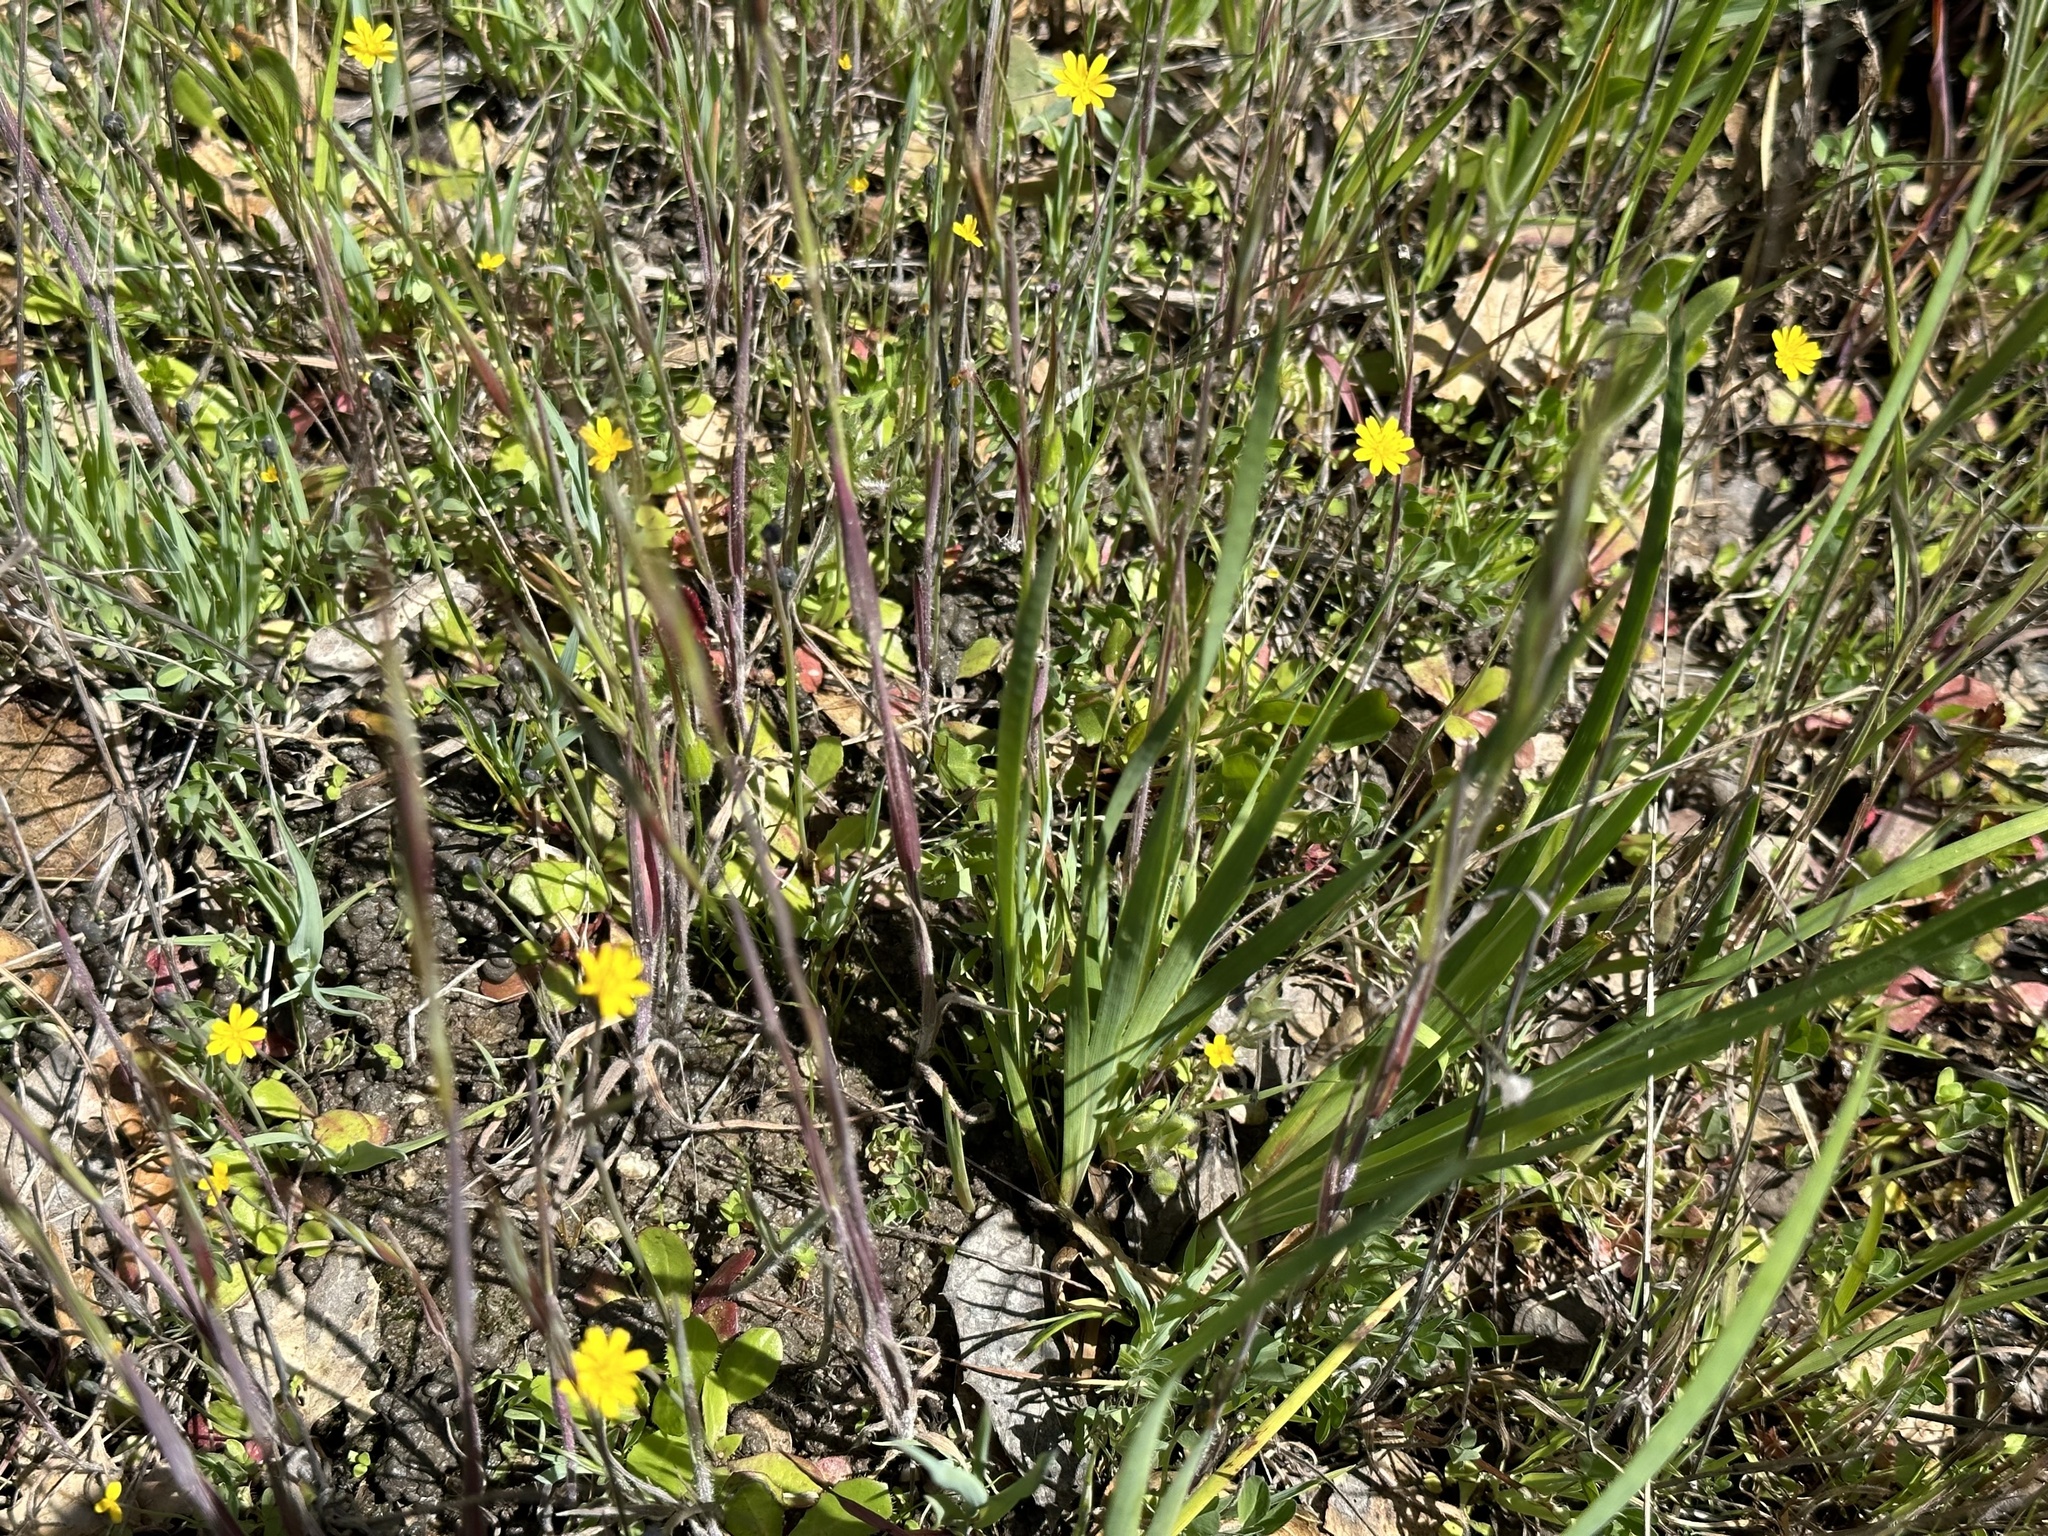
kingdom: Plantae
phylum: Tracheophyta
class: Magnoliopsida
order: Asterales
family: Asteraceae
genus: Hypochaeris
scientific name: Hypochaeris glabra
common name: Smooth catsear
